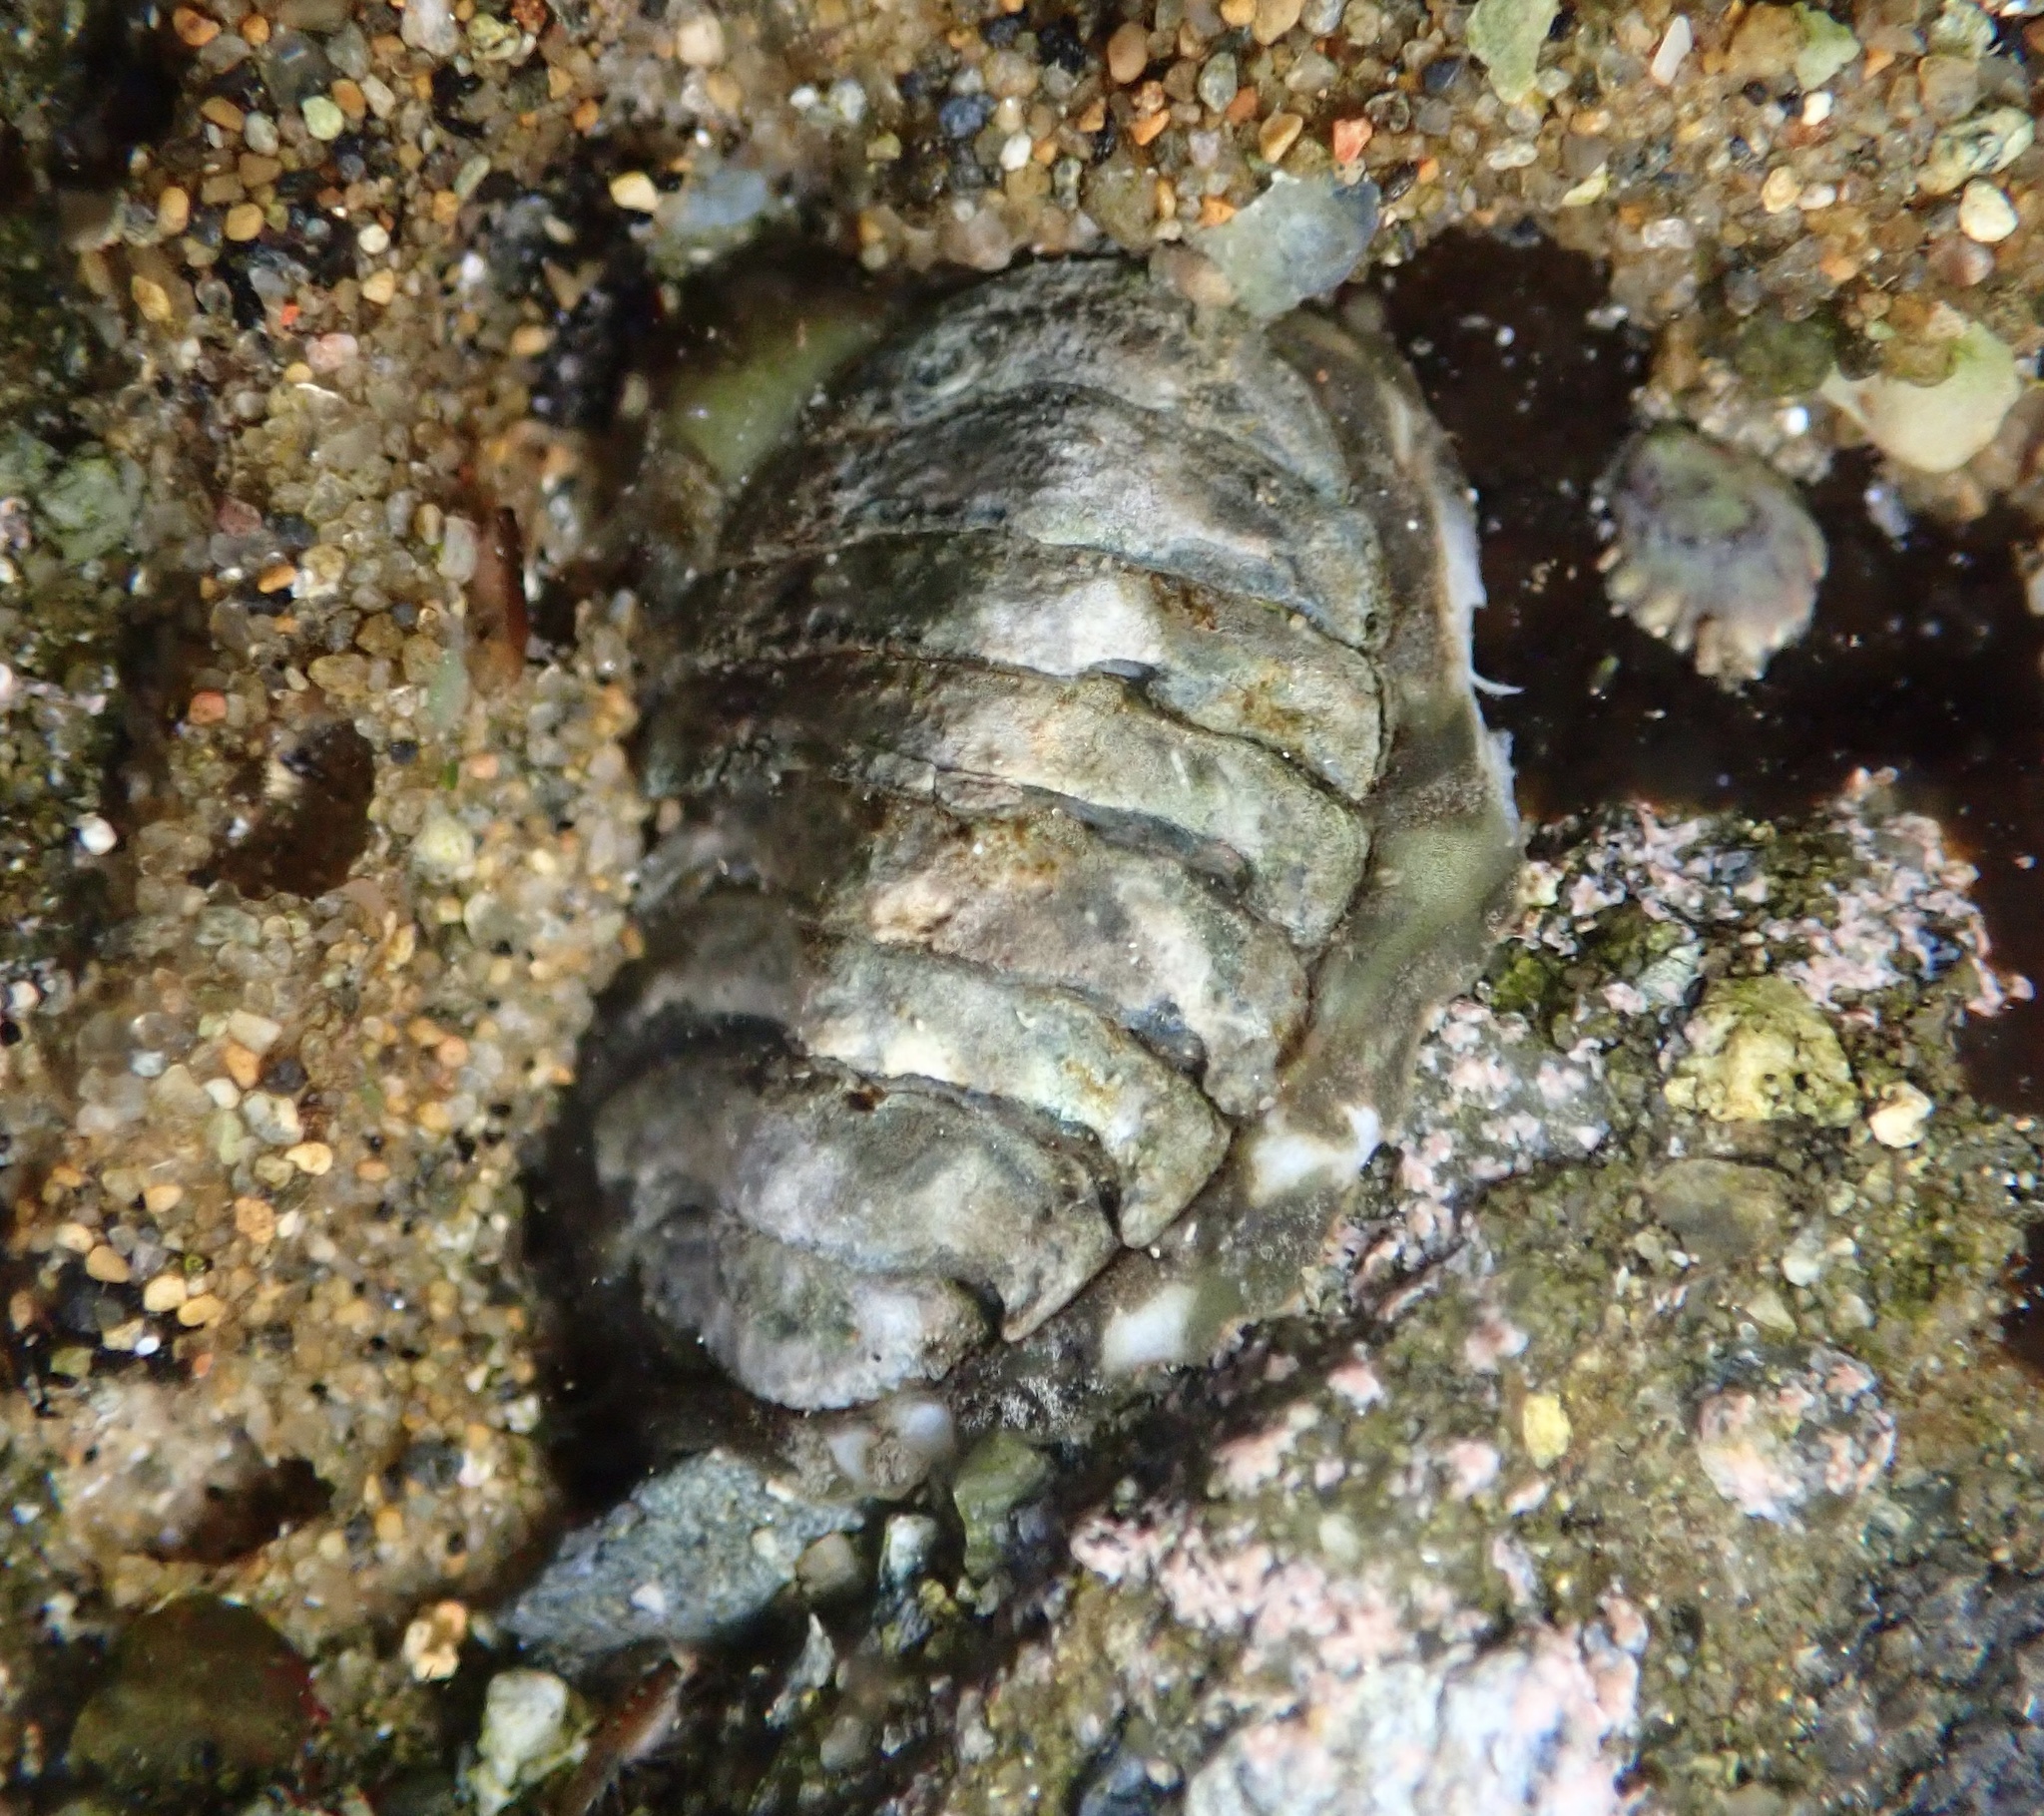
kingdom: Animalia
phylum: Mollusca
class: Polyplacophora
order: Chitonida
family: Tonicellidae
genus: Cyanoplax
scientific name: Cyanoplax hartwegii
